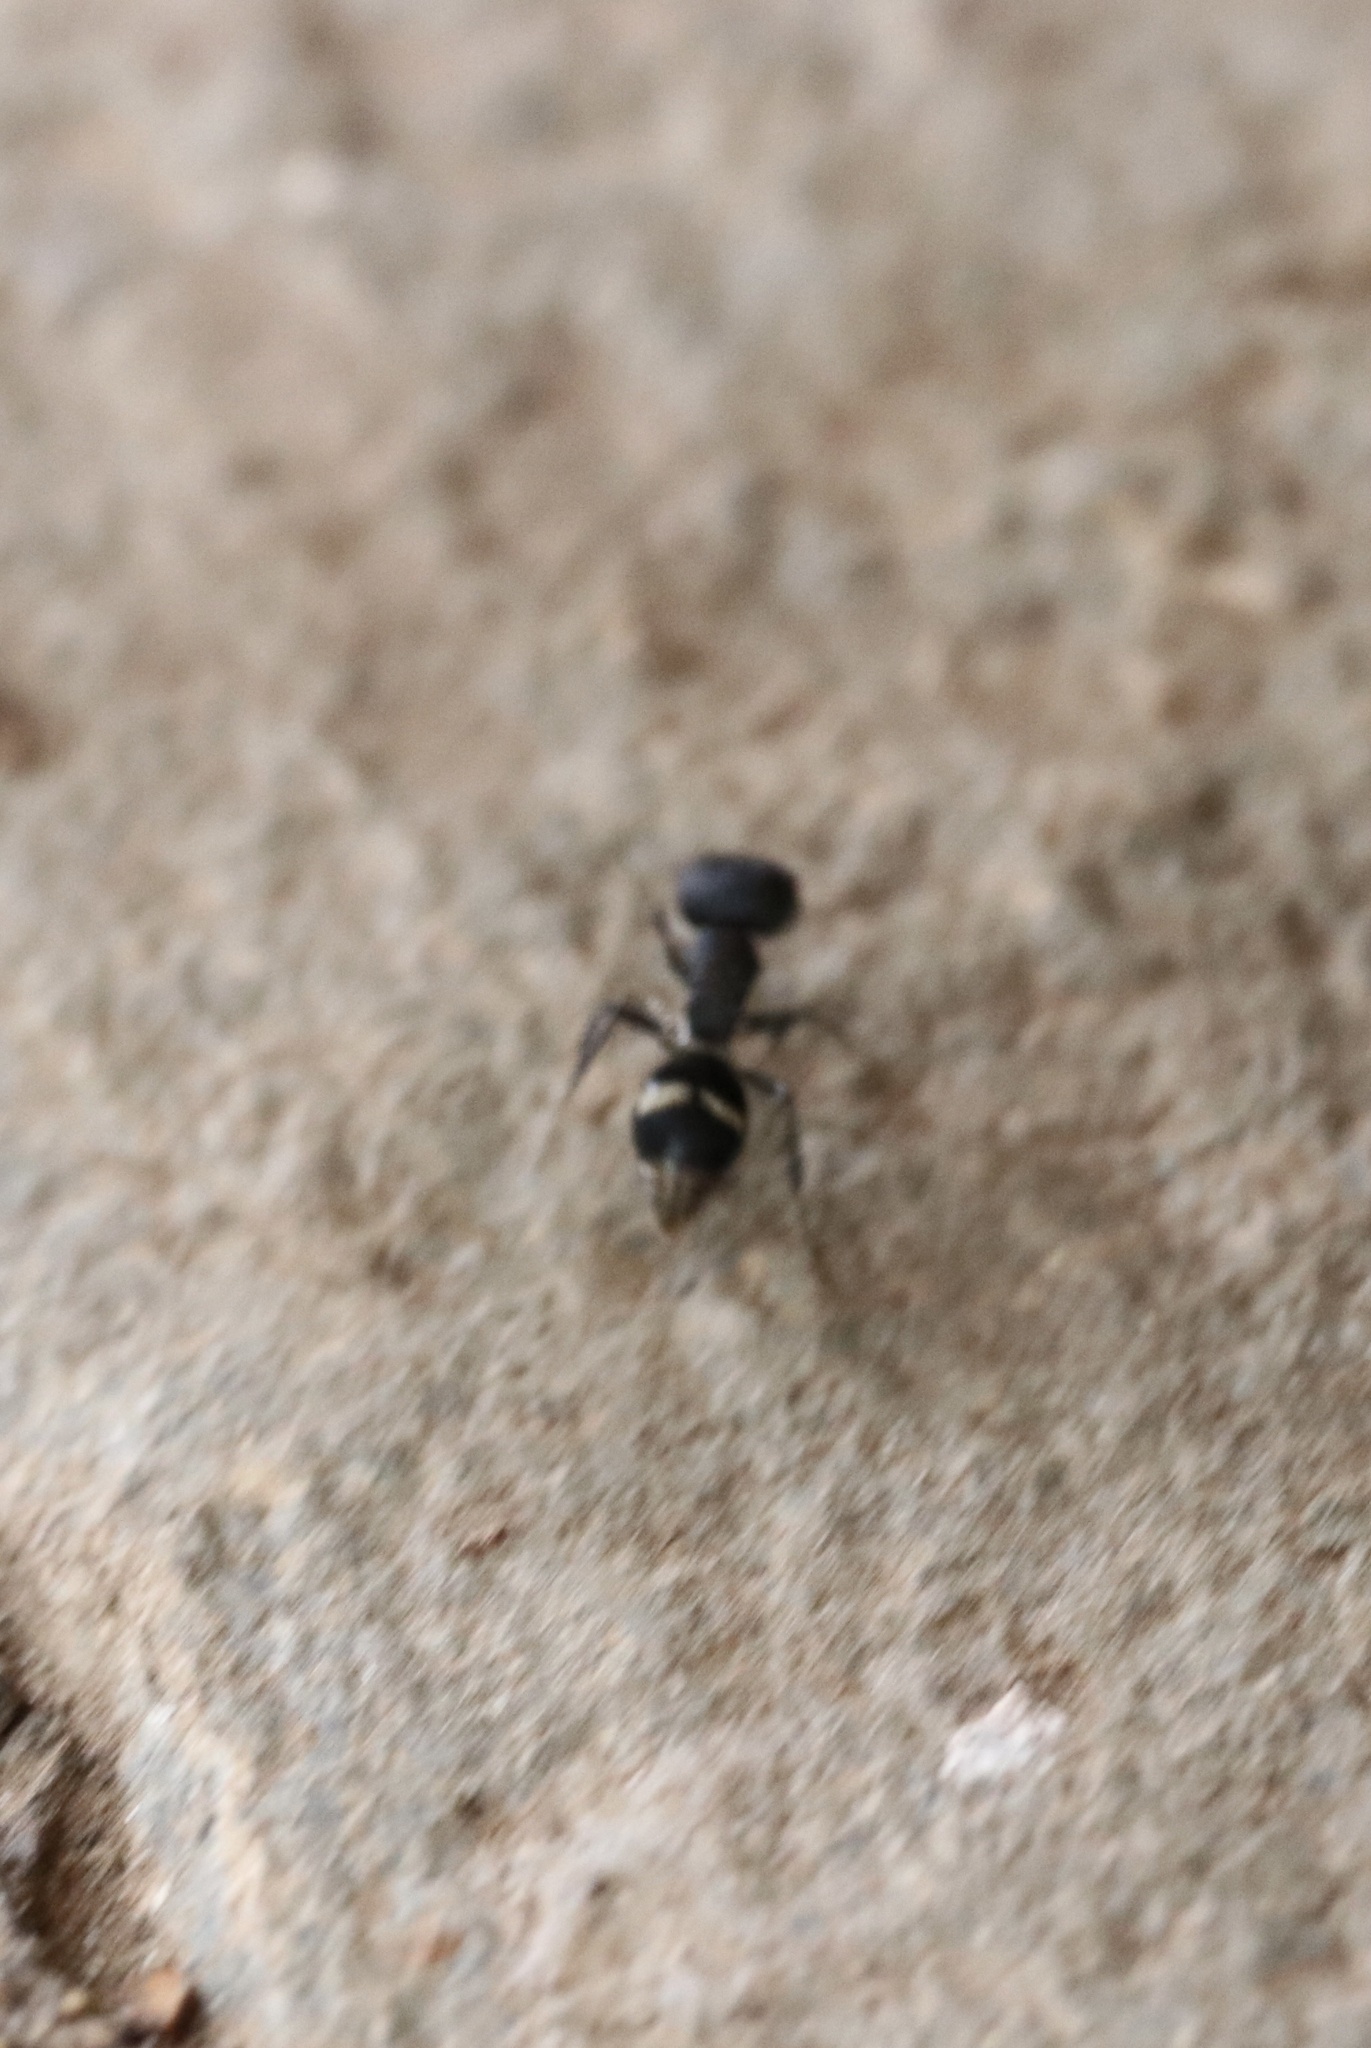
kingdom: Animalia
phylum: Arthropoda
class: Insecta
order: Hymenoptera
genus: Dimorphomutilla
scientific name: Dimorphomutilla
